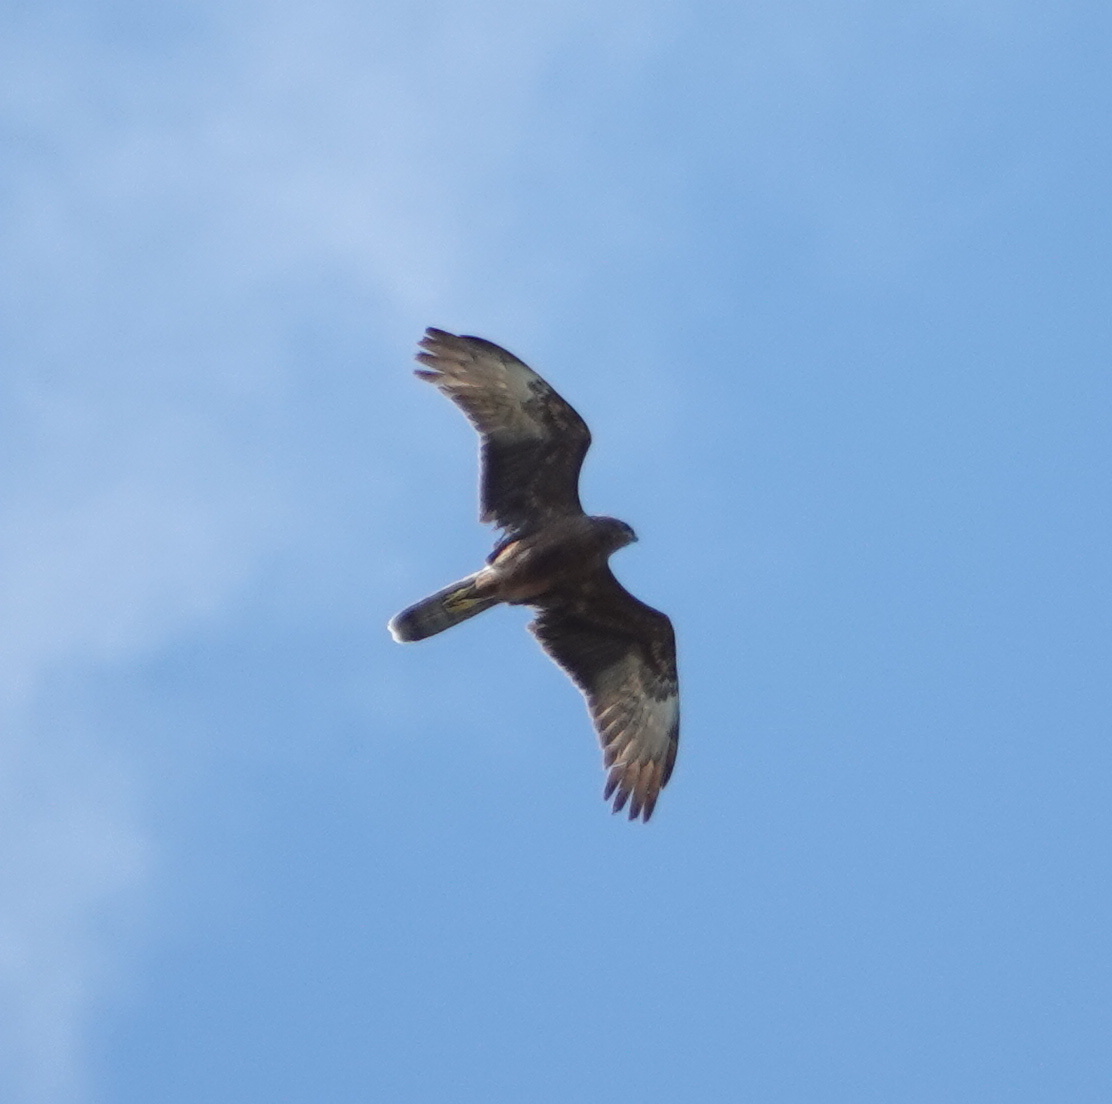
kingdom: Animalia
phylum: Chordata
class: Aves
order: Accipitriformes
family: Accipitridae
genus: Circus
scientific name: Circus approximans
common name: Swamp harrier
